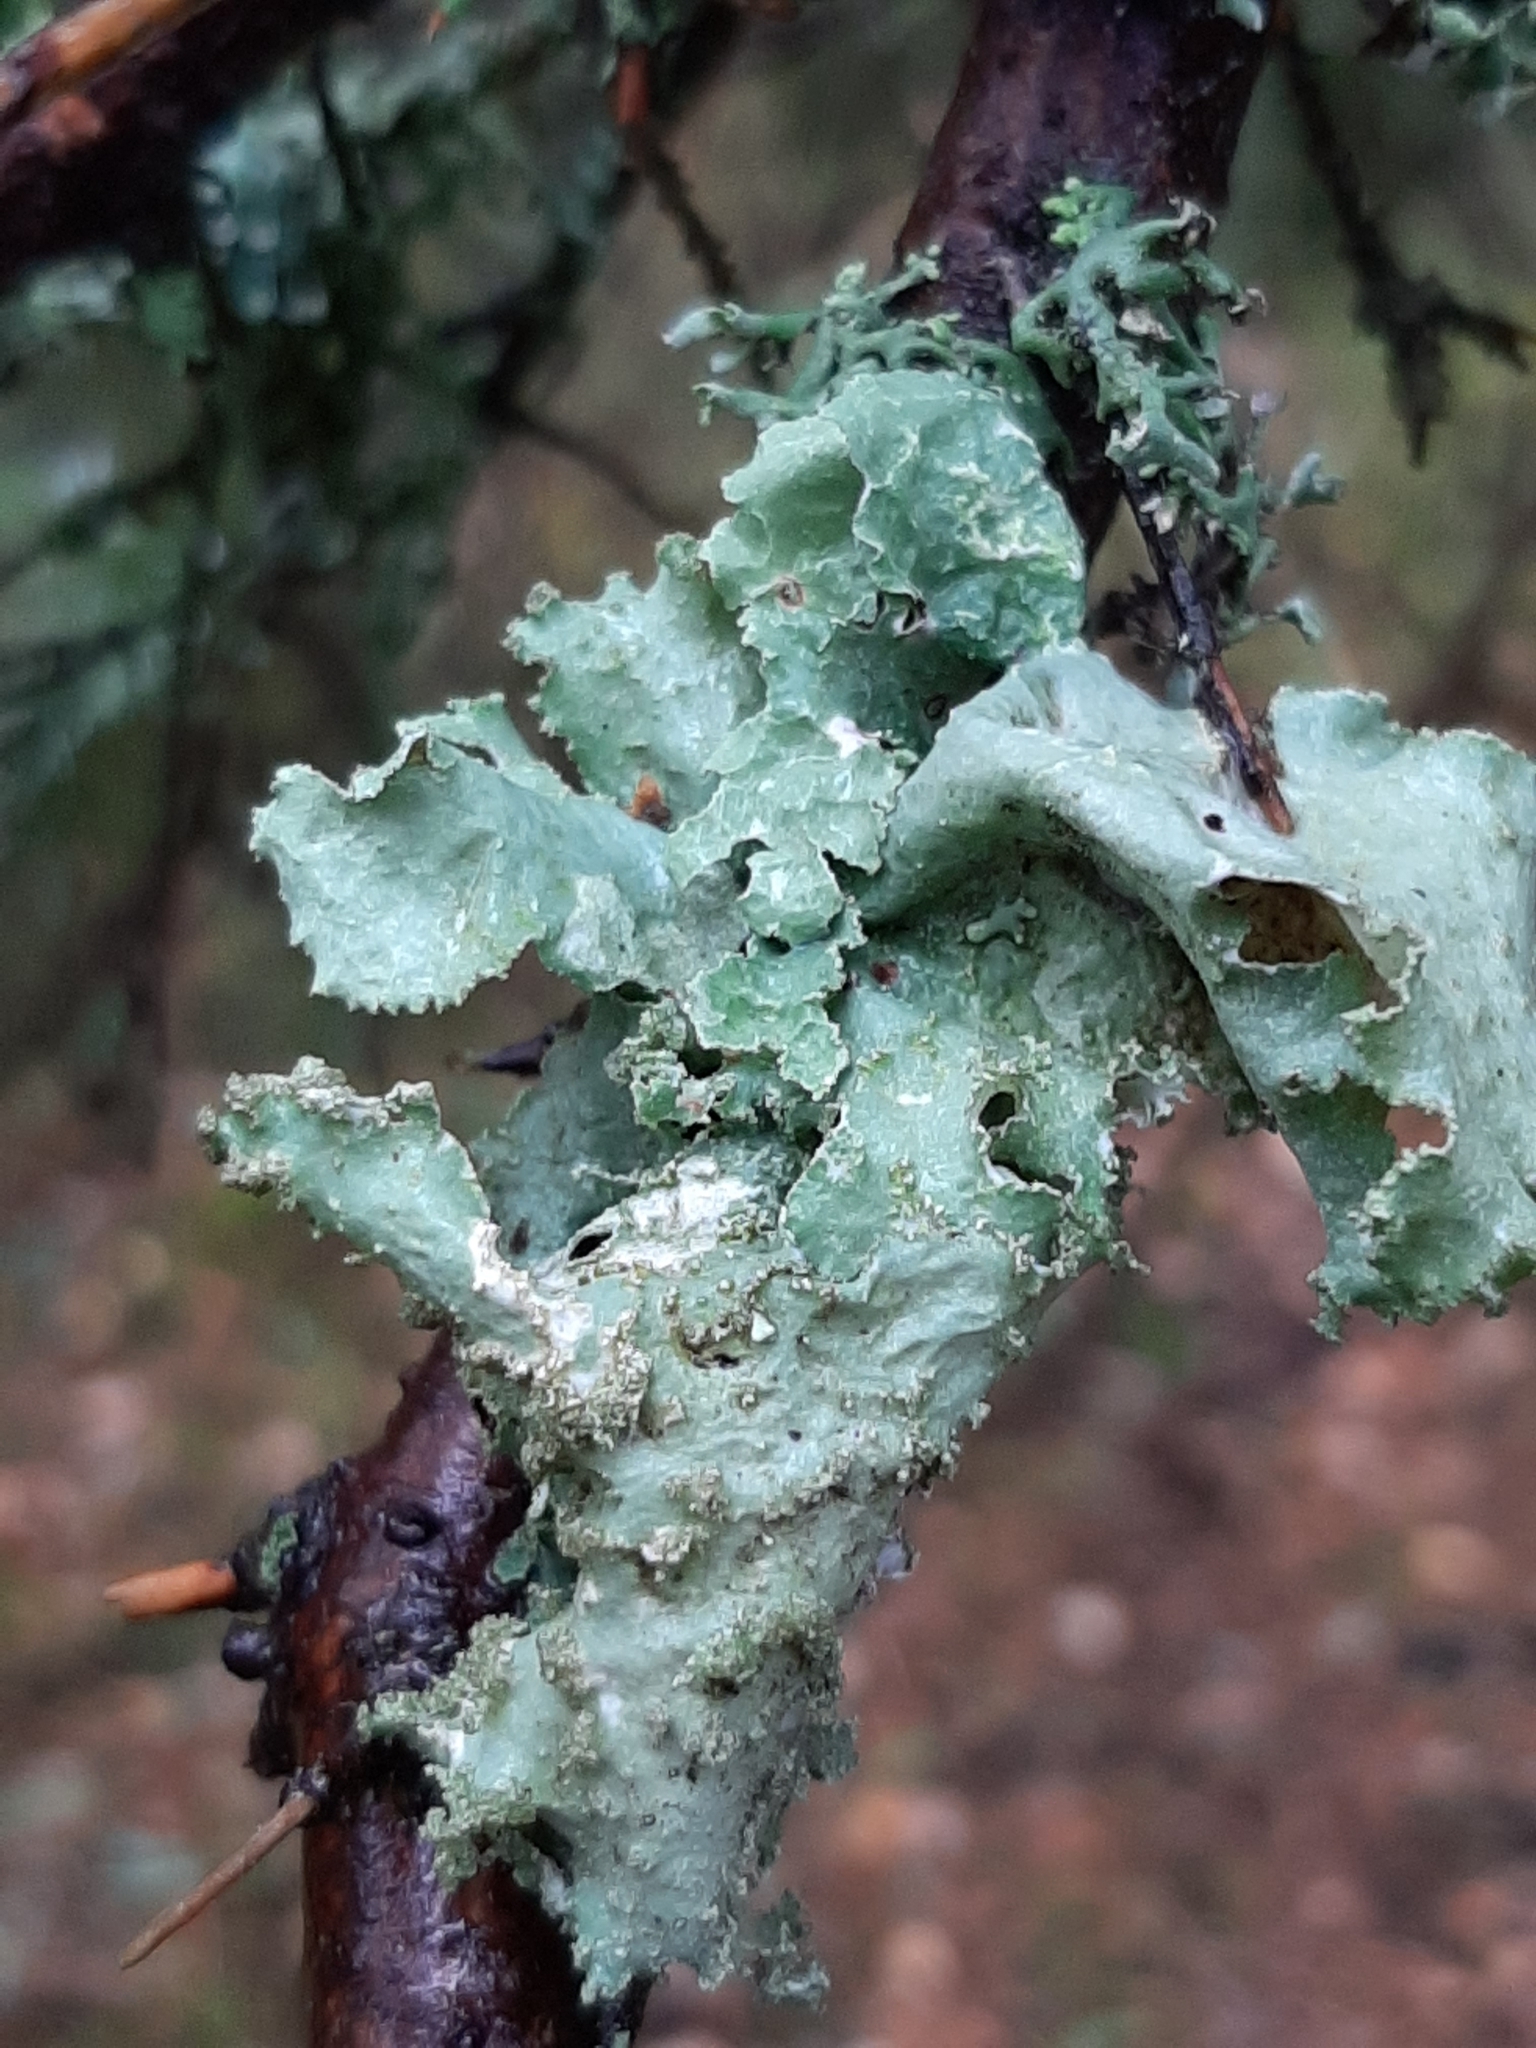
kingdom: Fungi
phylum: Ascomycota
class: Lecanoromycetes
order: Lecanorales
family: Parmeliaceae
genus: Platismatia
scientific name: Platismatia glauca
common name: Varied rag lichen
